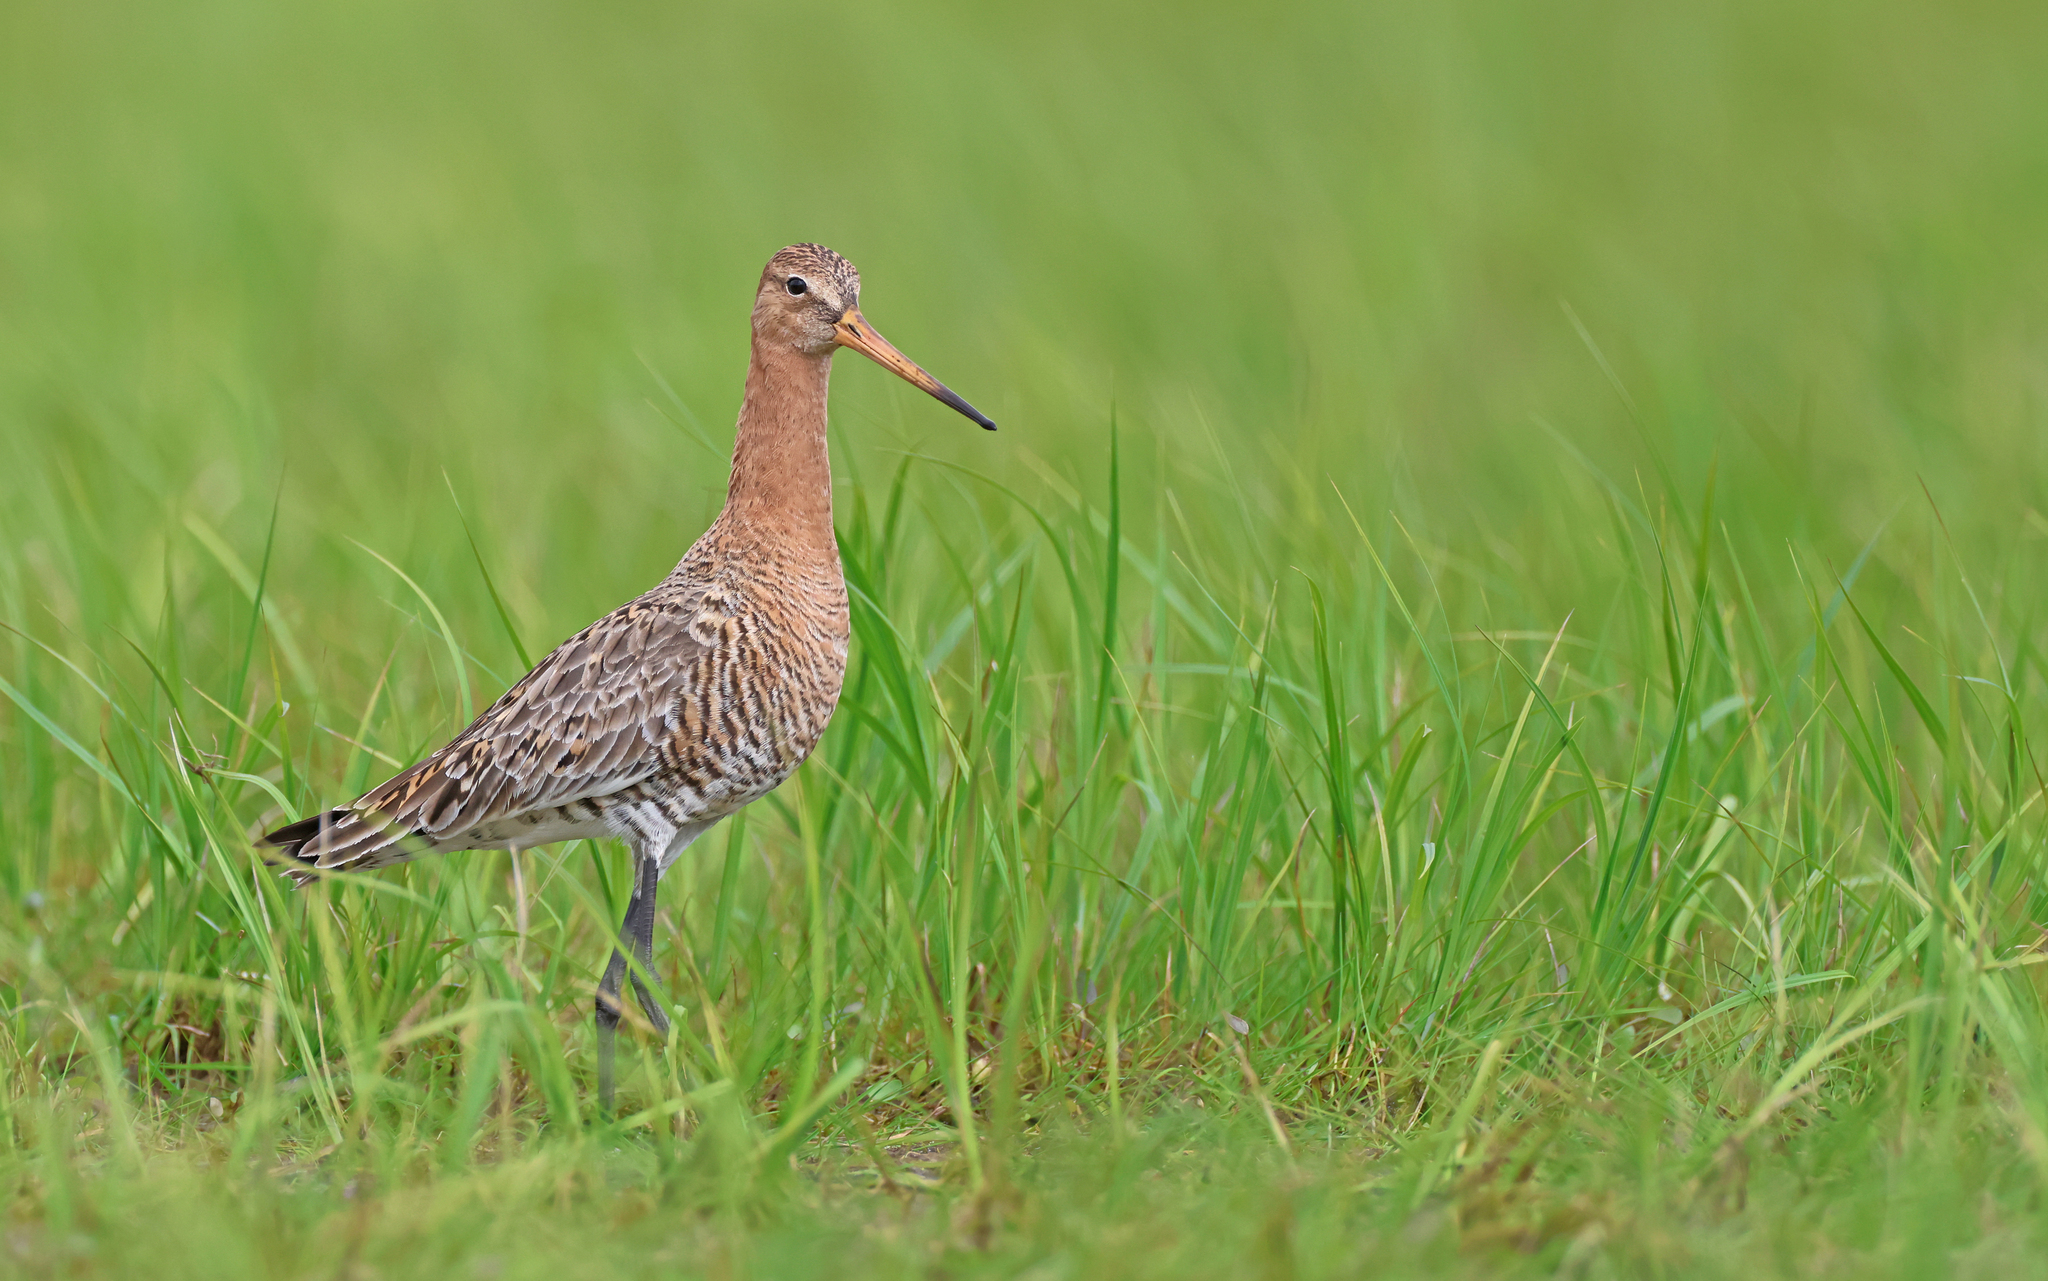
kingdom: Animalia
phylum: Chordata
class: Aves
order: Charadriiformes
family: Scolopacidae
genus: Limosa
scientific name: Limosa limosa
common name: Black-tailed godwit
